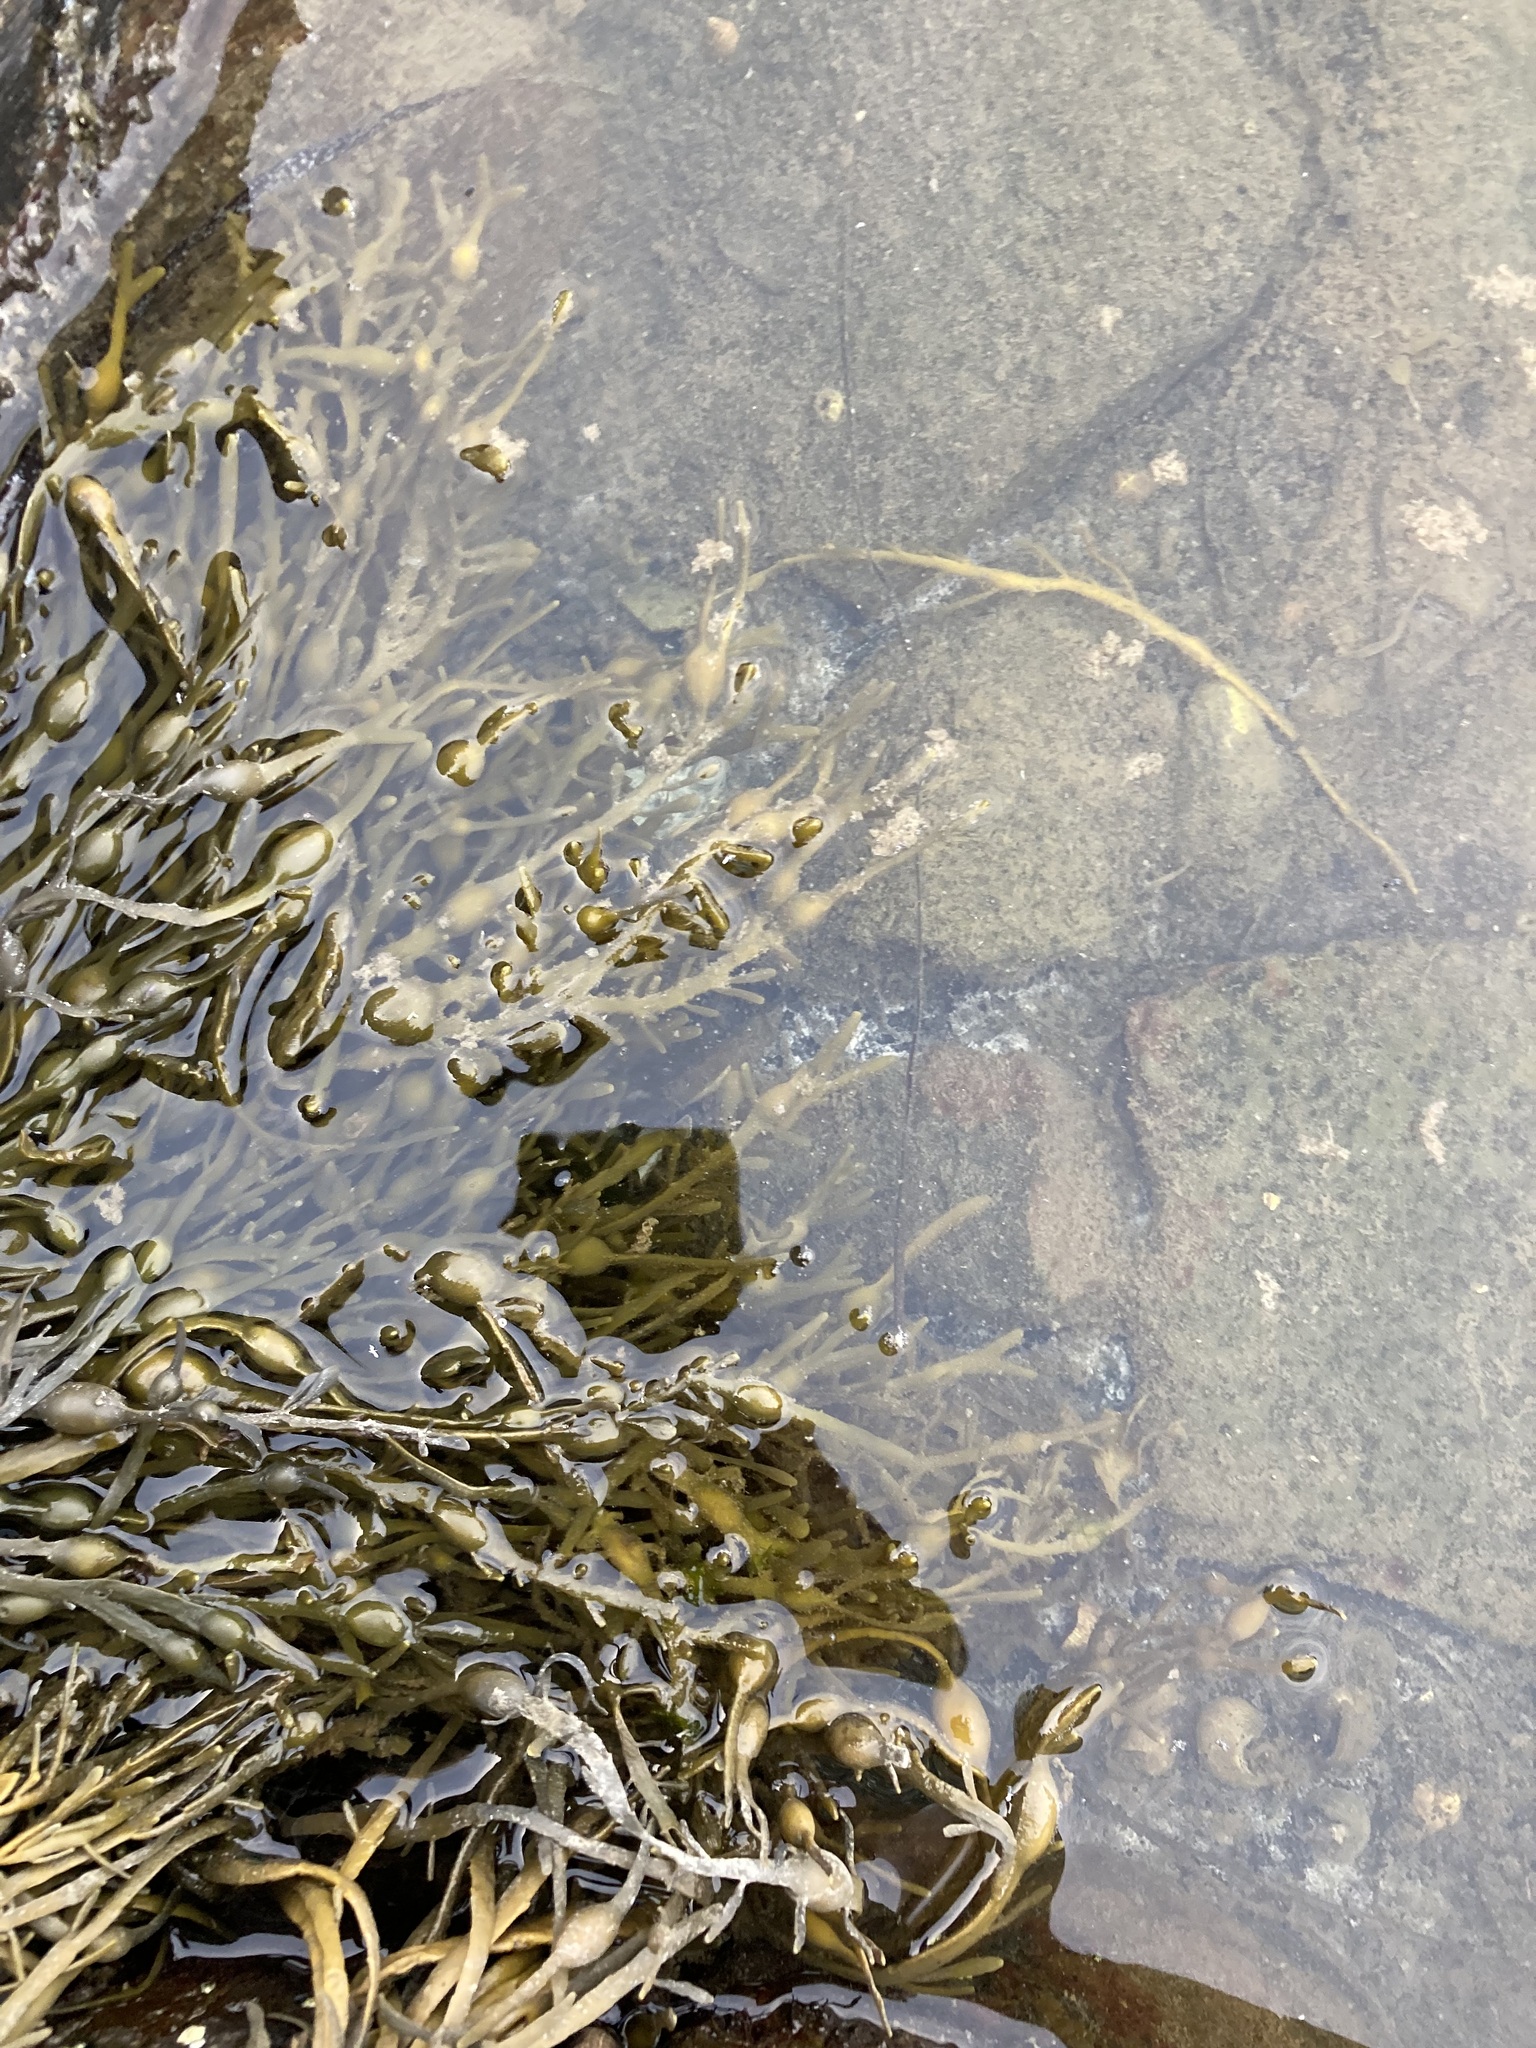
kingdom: Chromista
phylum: Ochrophyta
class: Phaeophyceae
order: Fucales
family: Fucaceae
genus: Ascophyllum
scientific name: Ascophyllum nodosum
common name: Knotted wrack
